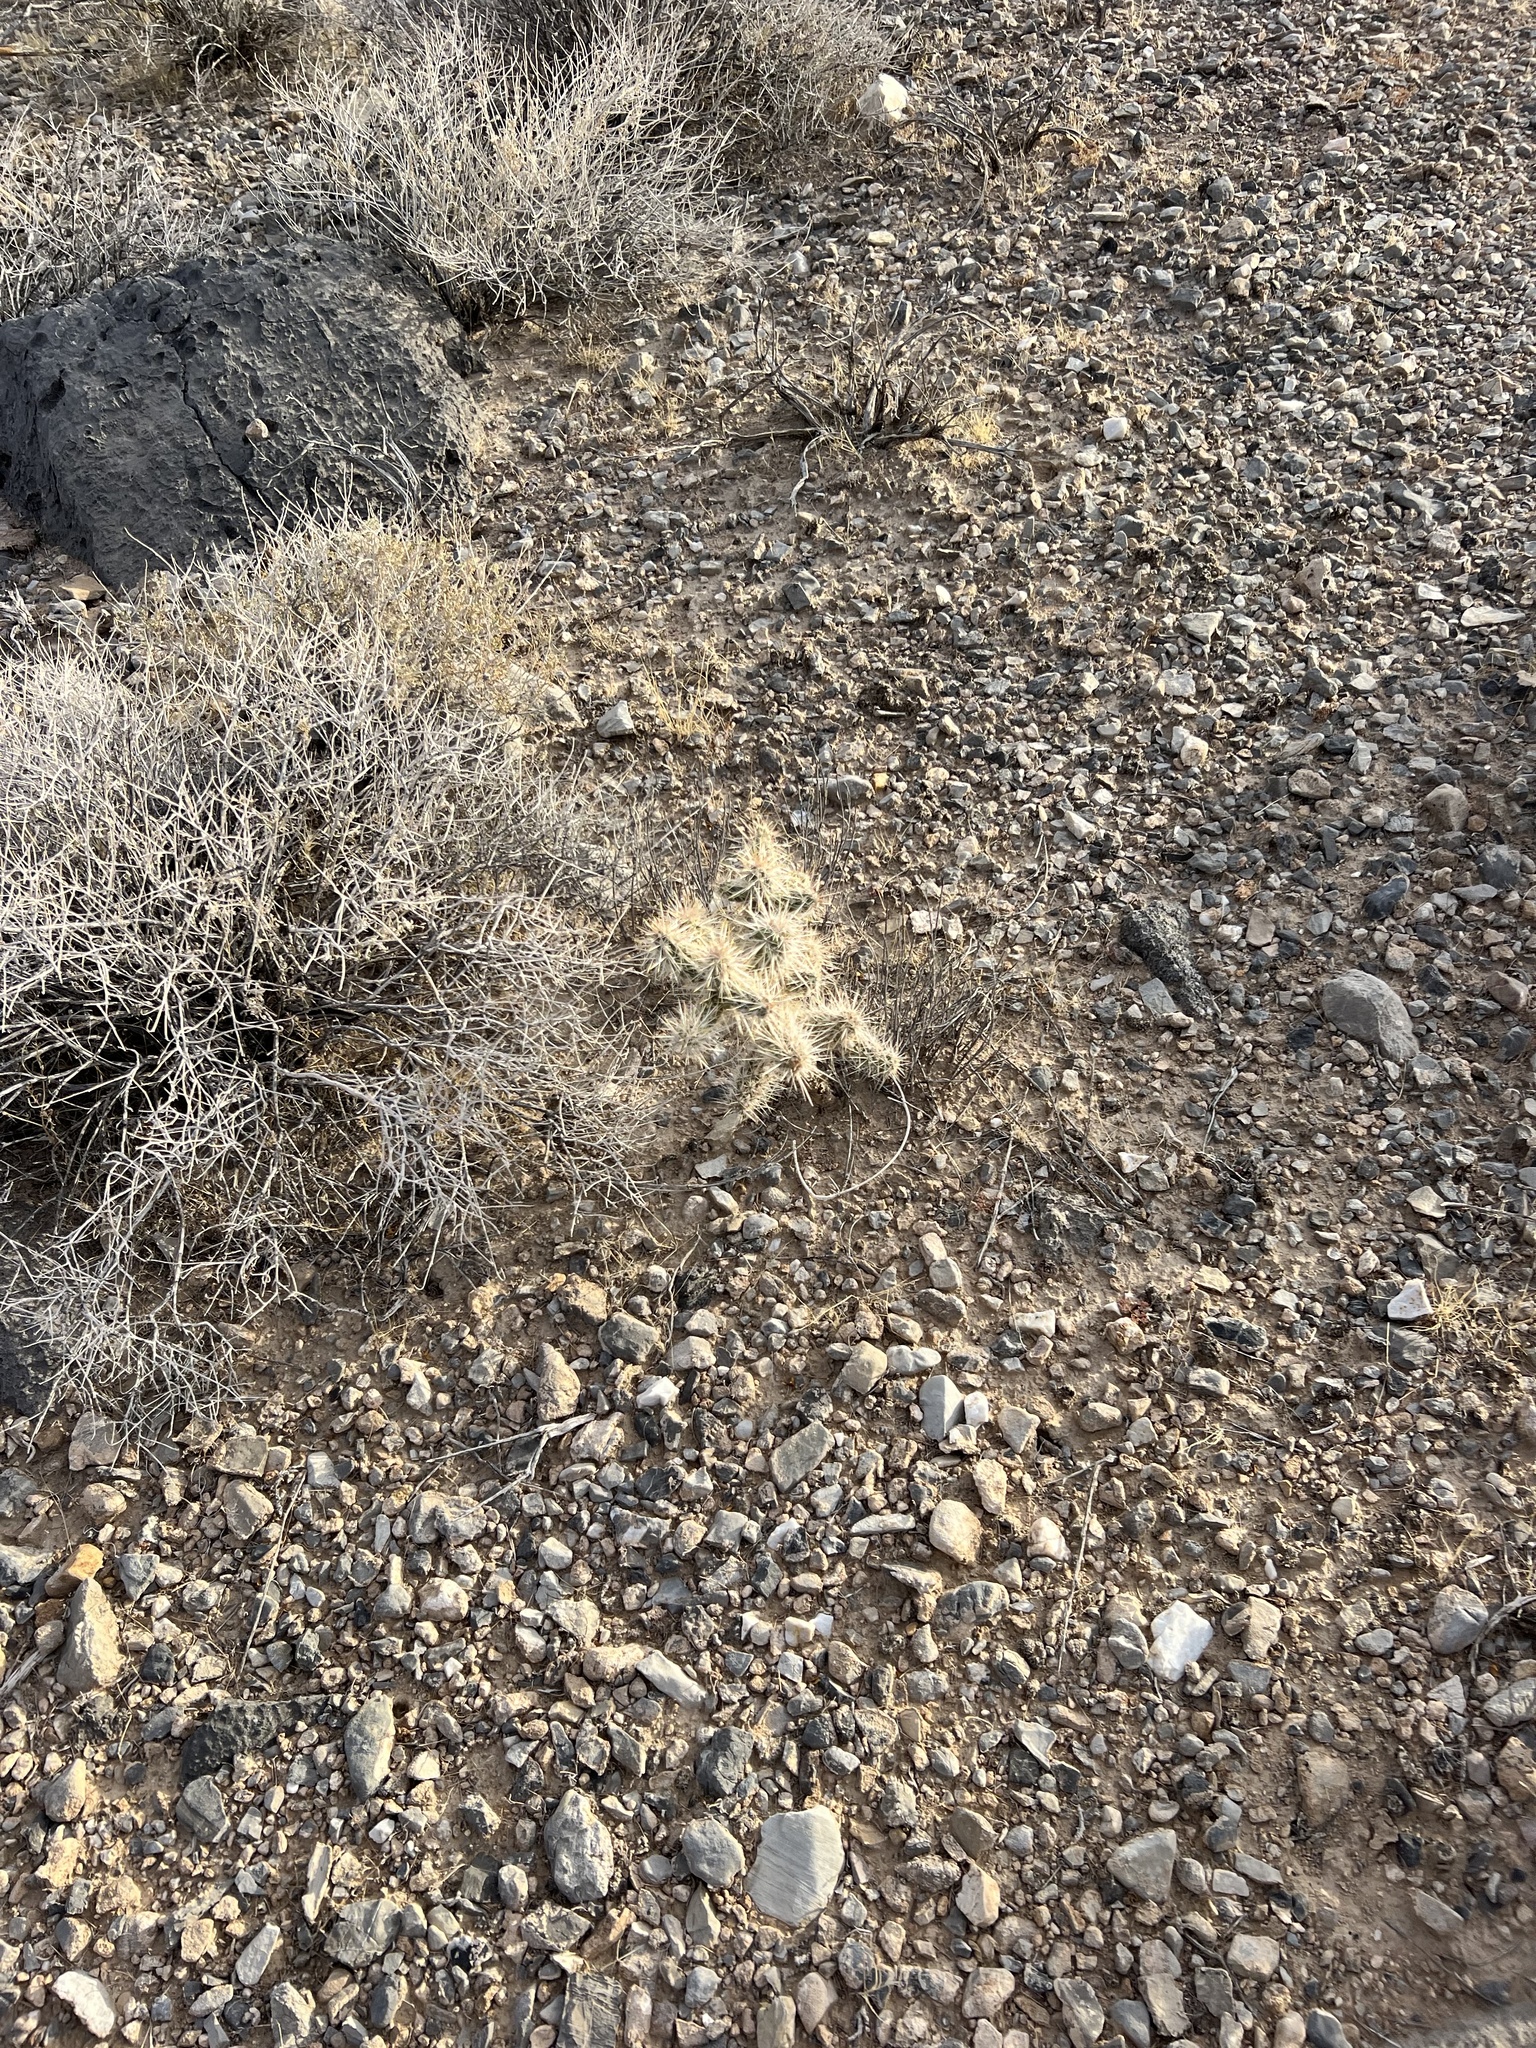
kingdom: Plantae
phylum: Tracheophyta
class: Magnoliopsida
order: Caryophyllales
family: Cactaceae
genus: Cylindropuntia
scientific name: Cylindropuntia echinocarpa
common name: Ground cholla
